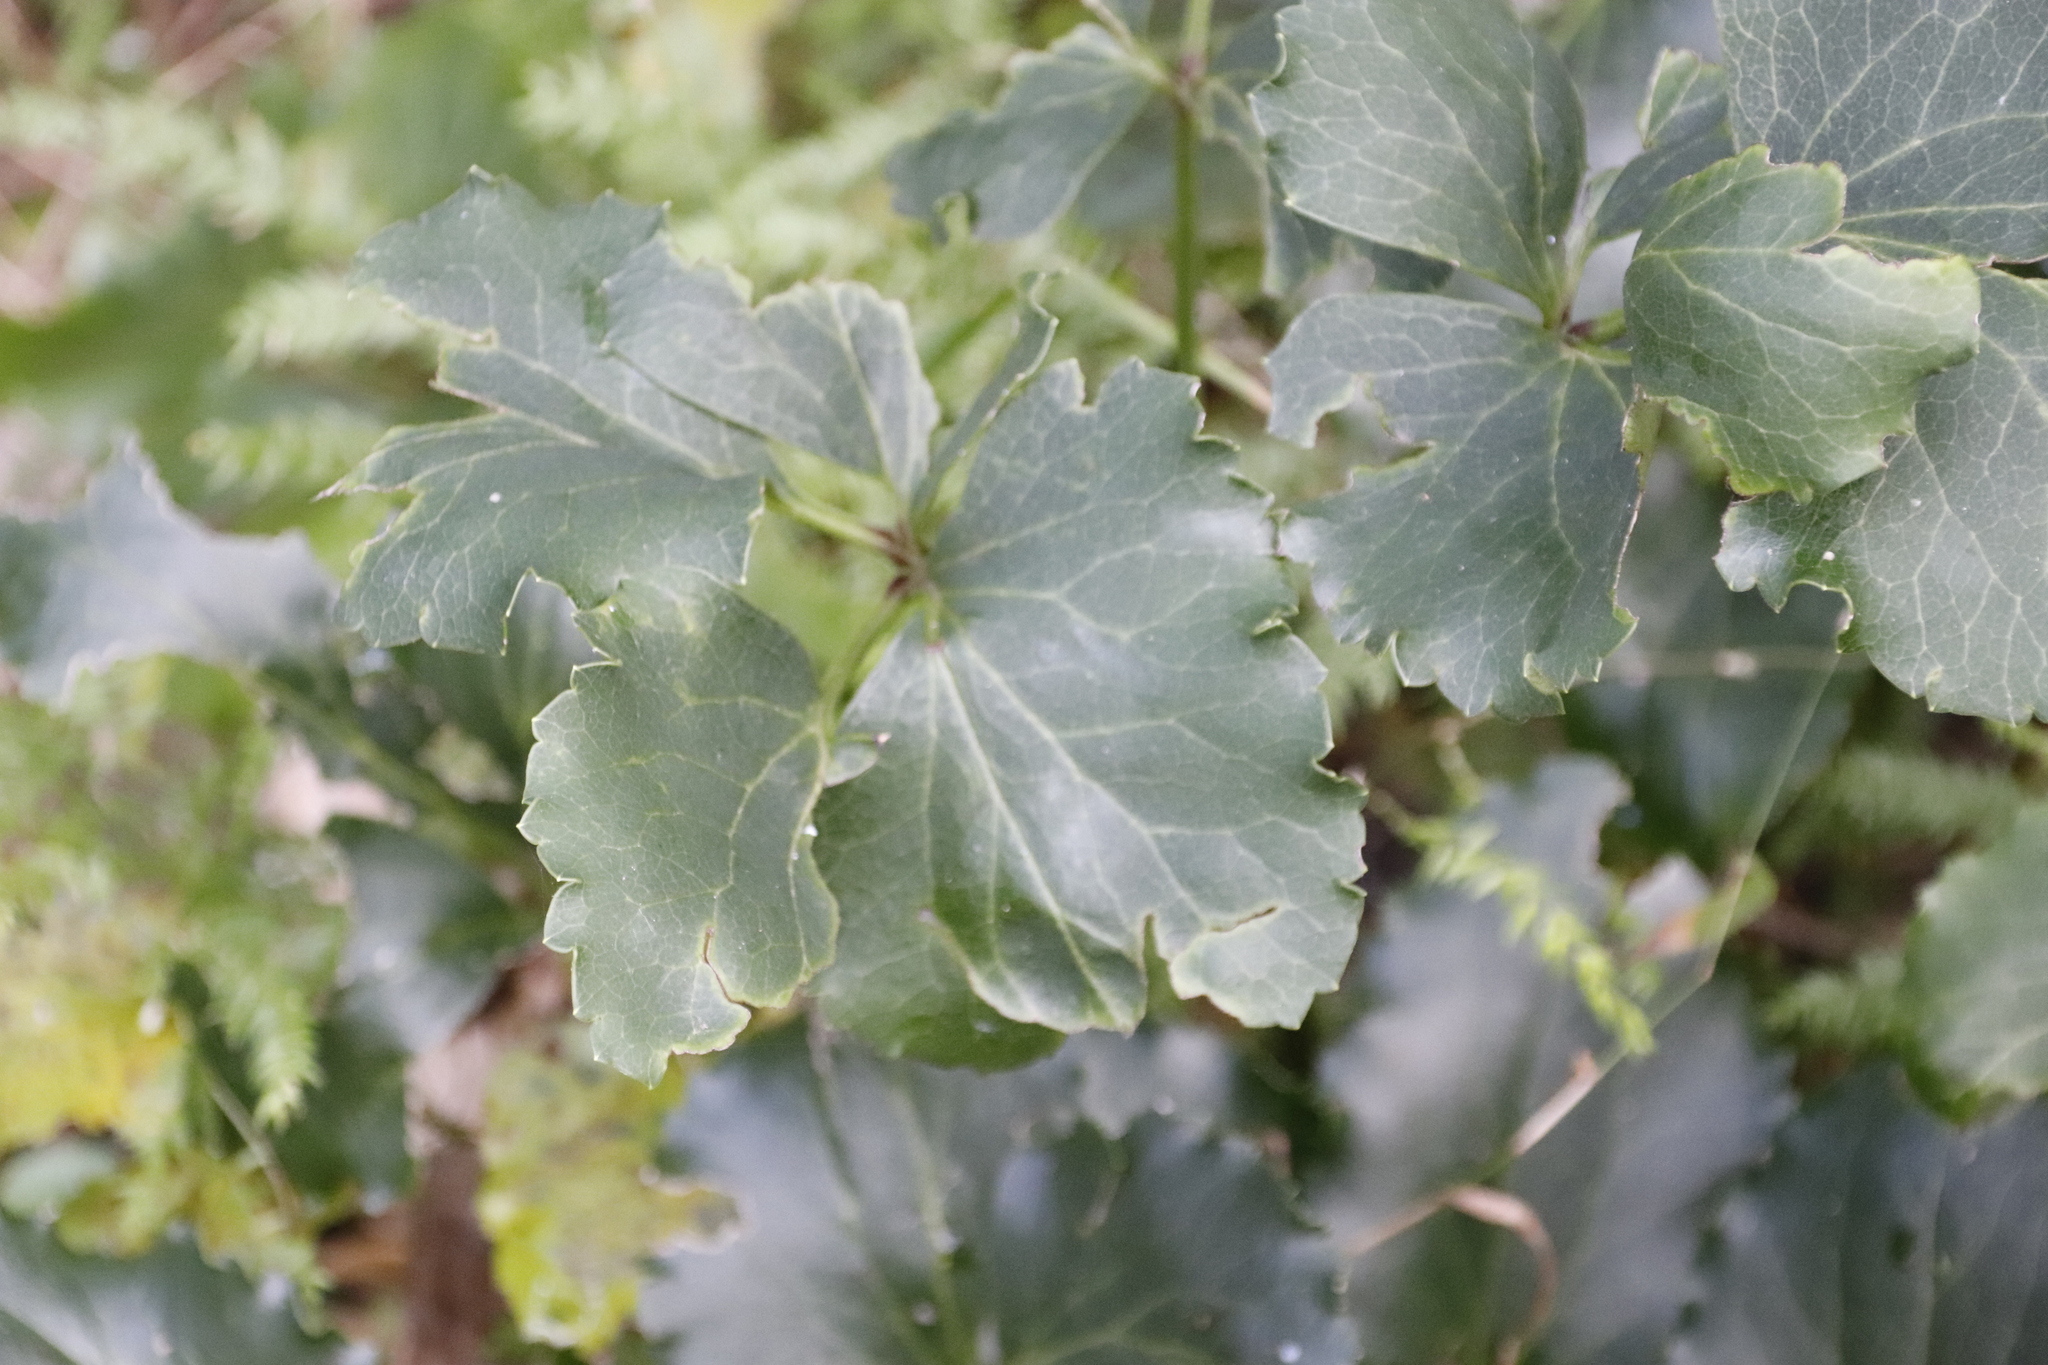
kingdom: Plantae
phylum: Tracheophyta
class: Magnoliopsida
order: Ranunculales
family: Ranunculaceae
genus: Knowltonia
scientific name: Knowltonia vesicatoria
